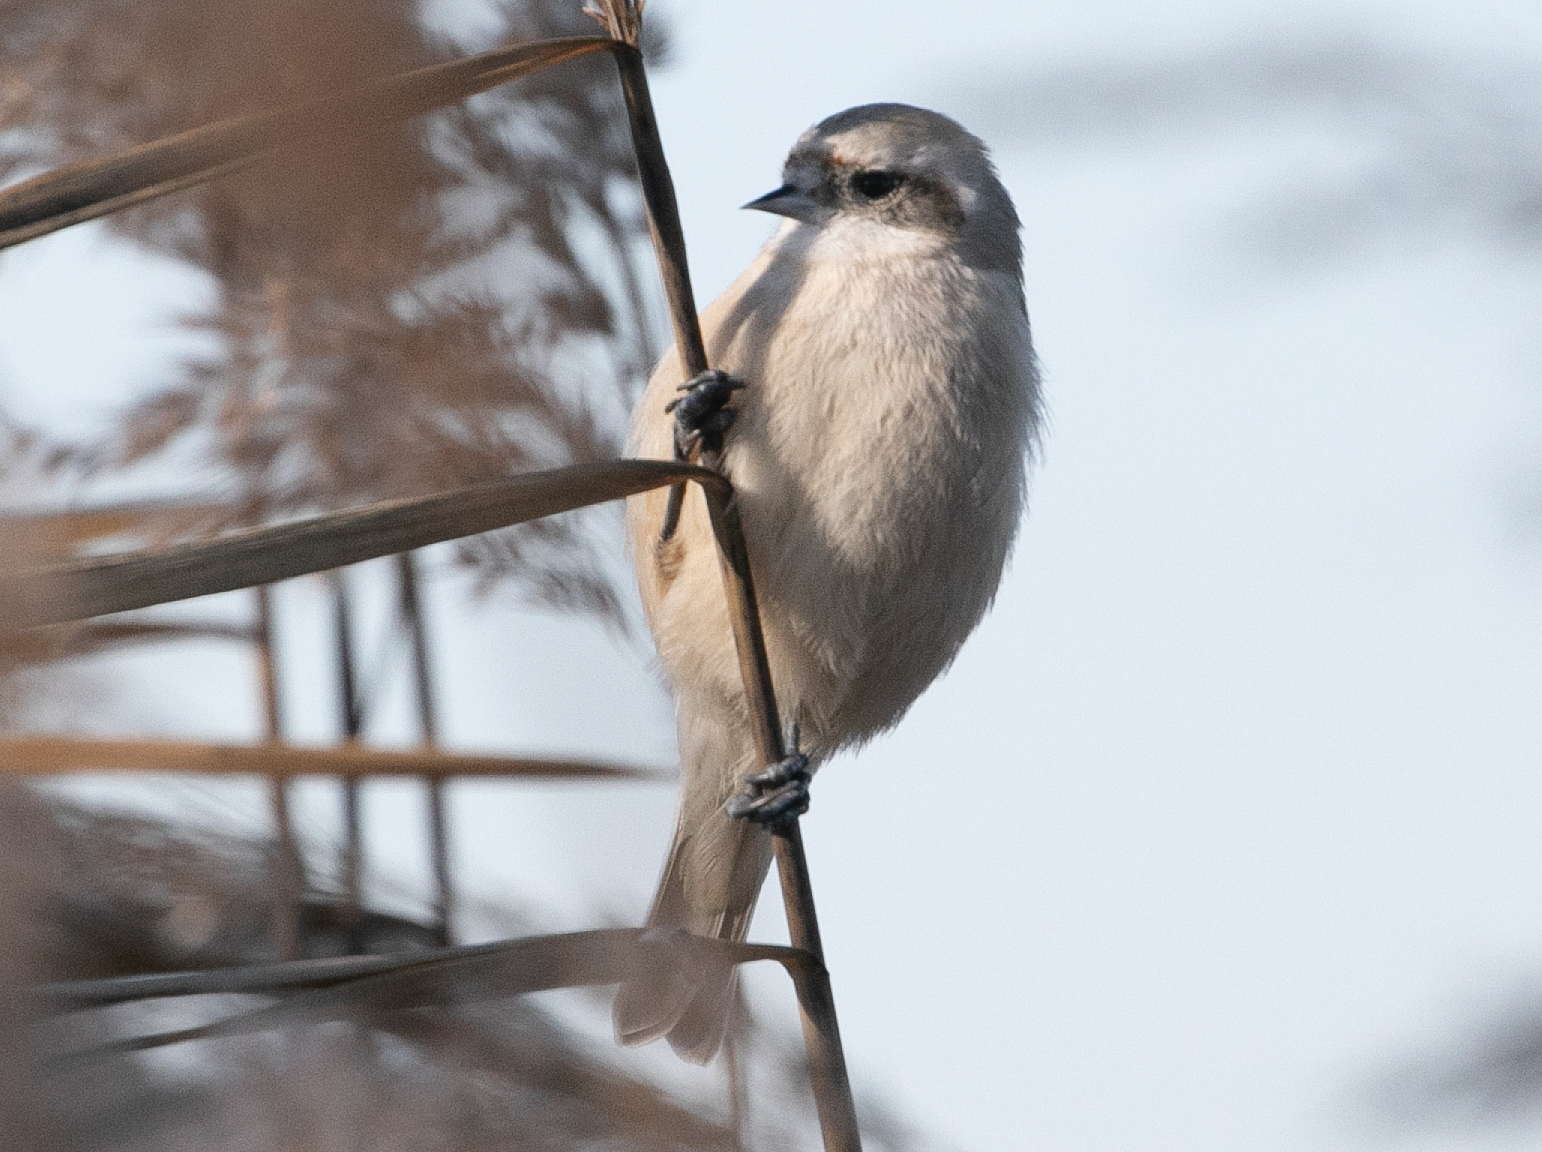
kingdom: Animalia
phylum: Chordata
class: Aves
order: Passeriformes
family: Remizidae
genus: Remiz
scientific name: Remiz pendulinus
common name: Eurasian penduline tit
